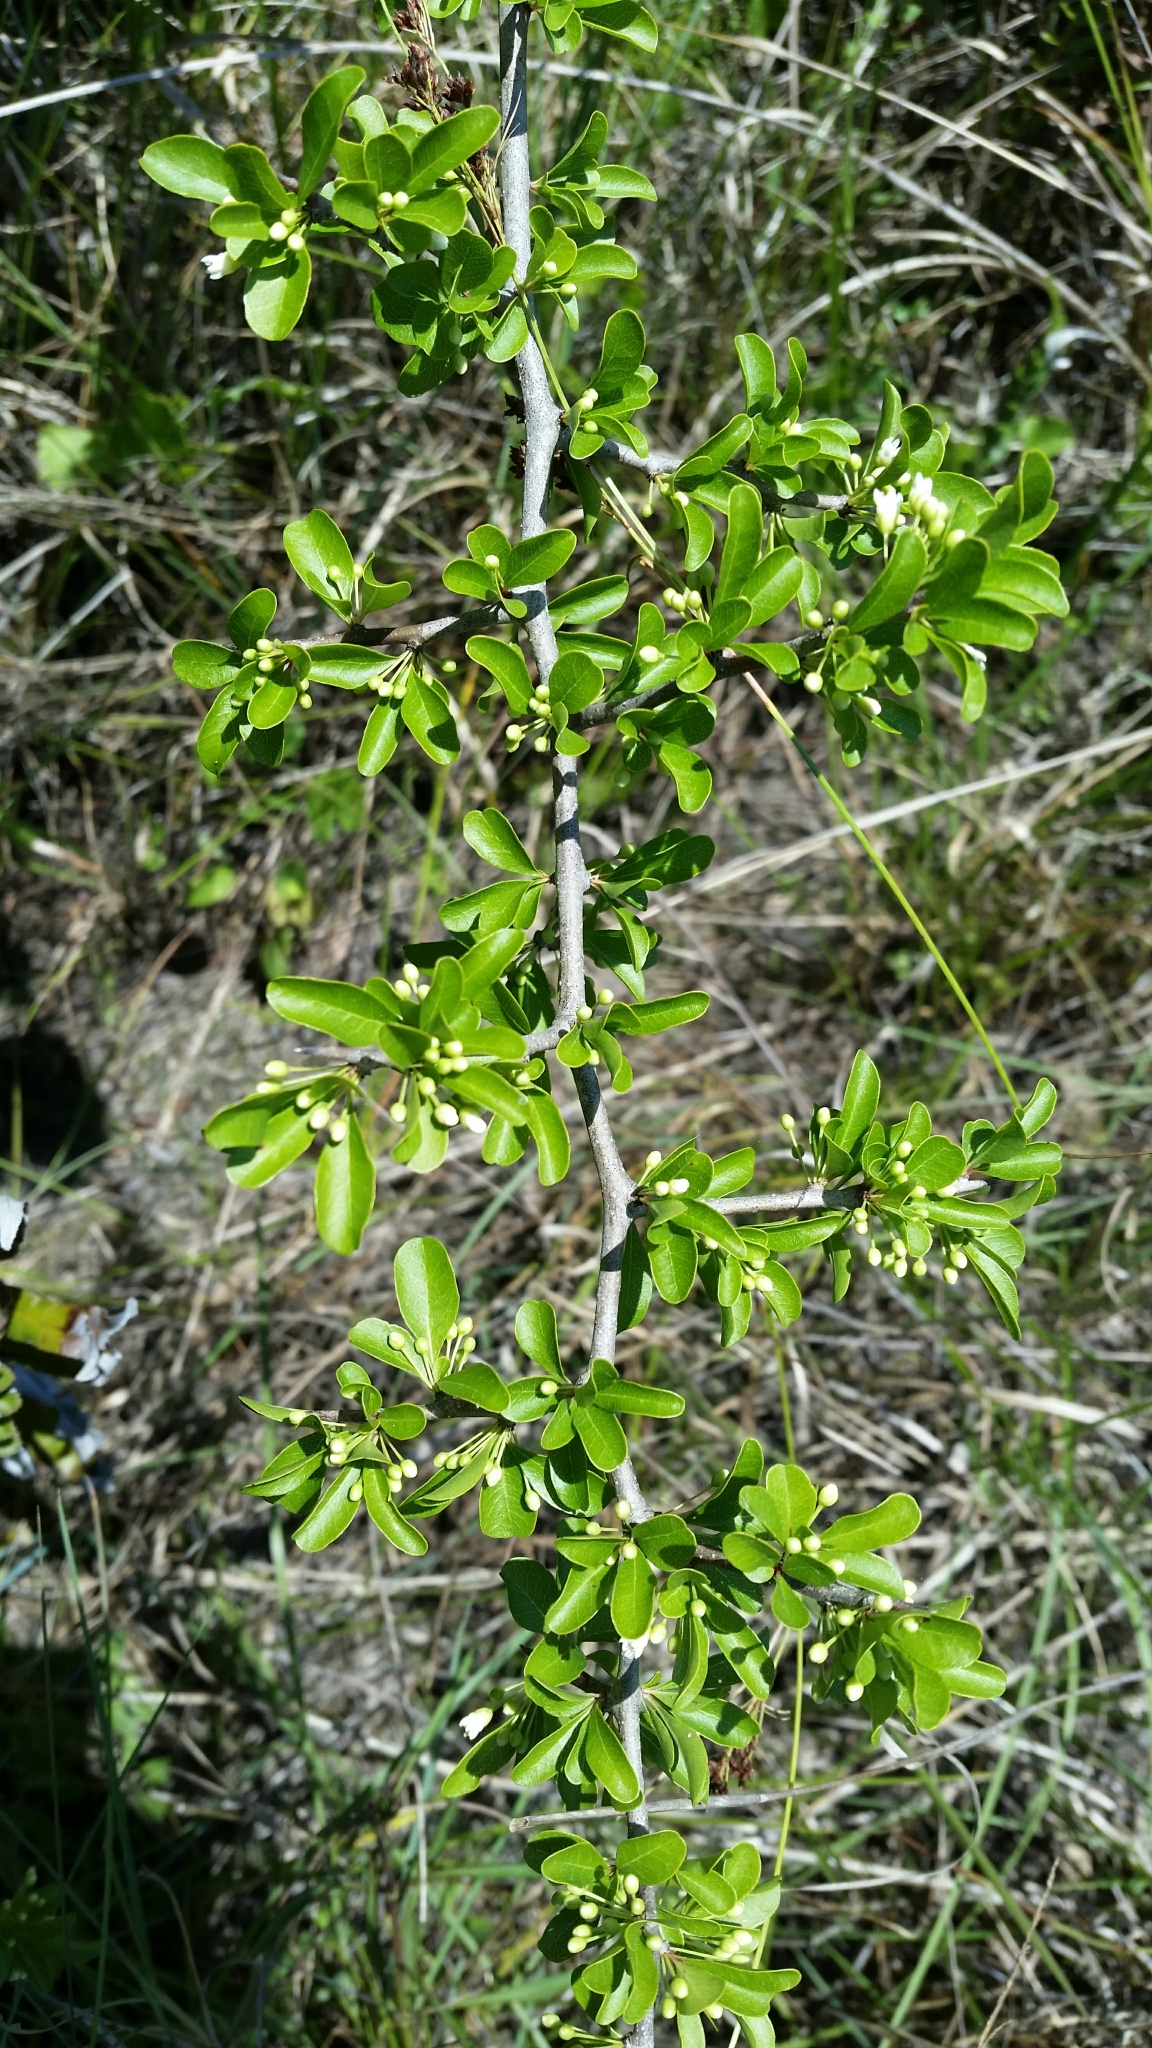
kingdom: Plantae
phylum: Tracheophyta
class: Magnoliopsida
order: Ericales
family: Sapotaceae
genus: Sideroxylon
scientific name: Sideroxylon reclinatum
